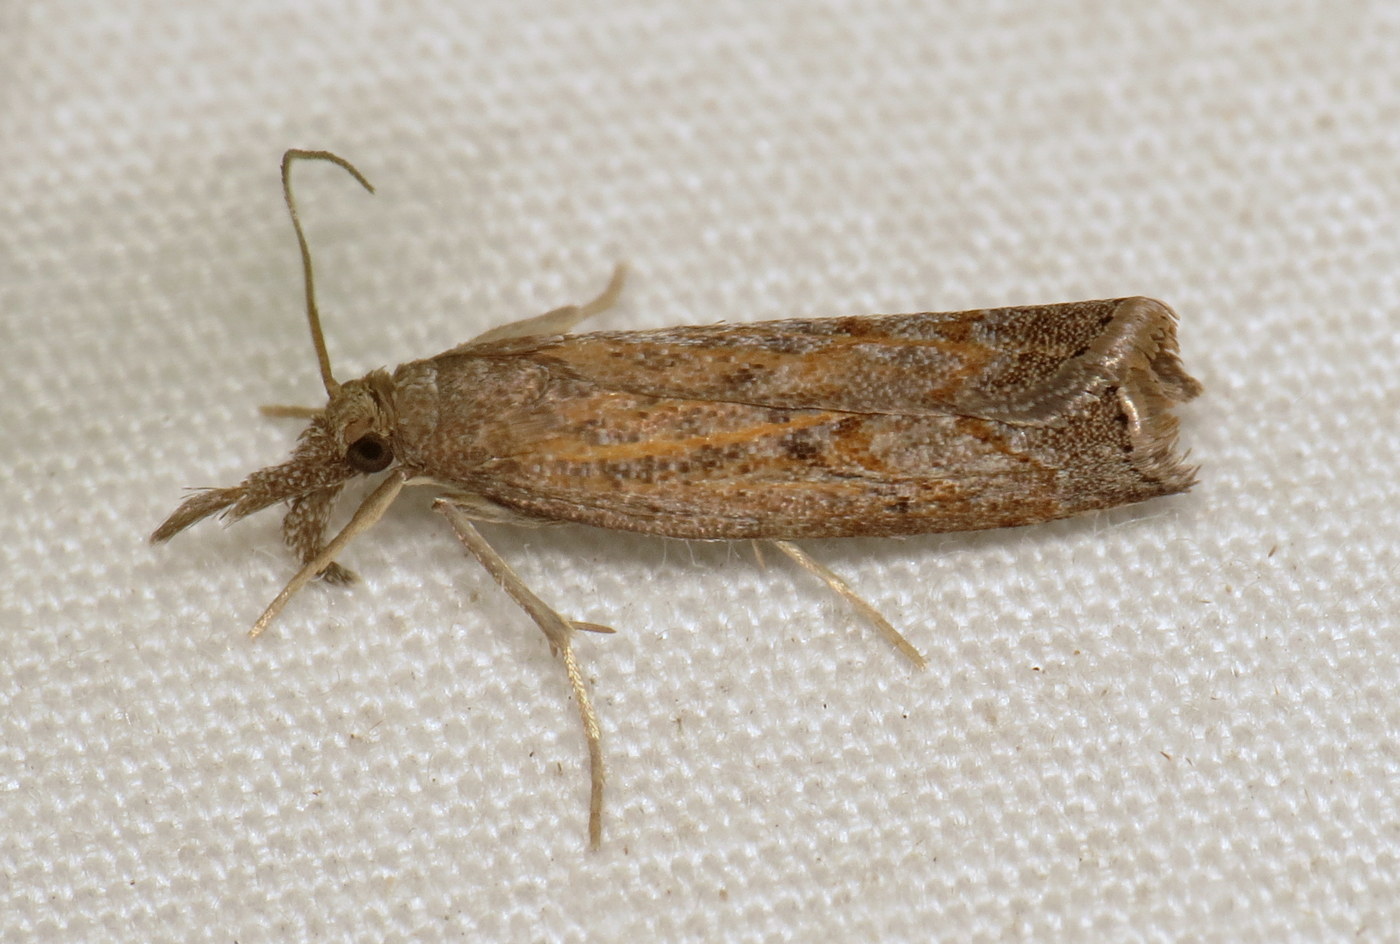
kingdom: Animalia
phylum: Arthropoda
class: Insecta
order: Lepidoptera
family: Crambidae
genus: Neodactria
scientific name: Neodactria luteolellus
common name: Mottled grass-veneer
